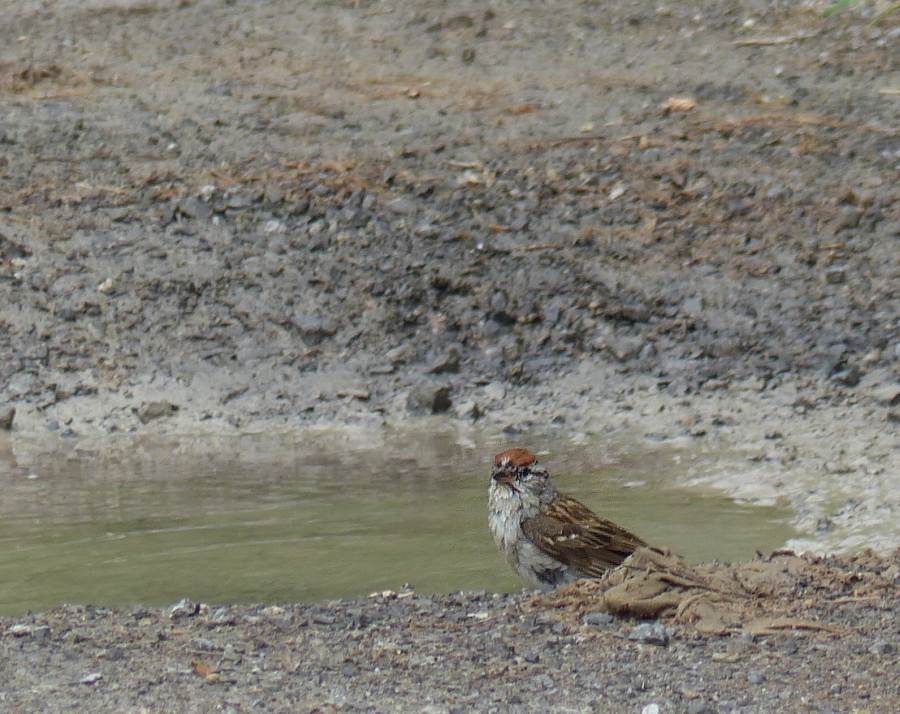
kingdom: Animalia
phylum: Chordata
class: Aves
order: Passeriformes
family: Passerellidae
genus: Spizella
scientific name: Spizella passerina
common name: Chipping sparrow
